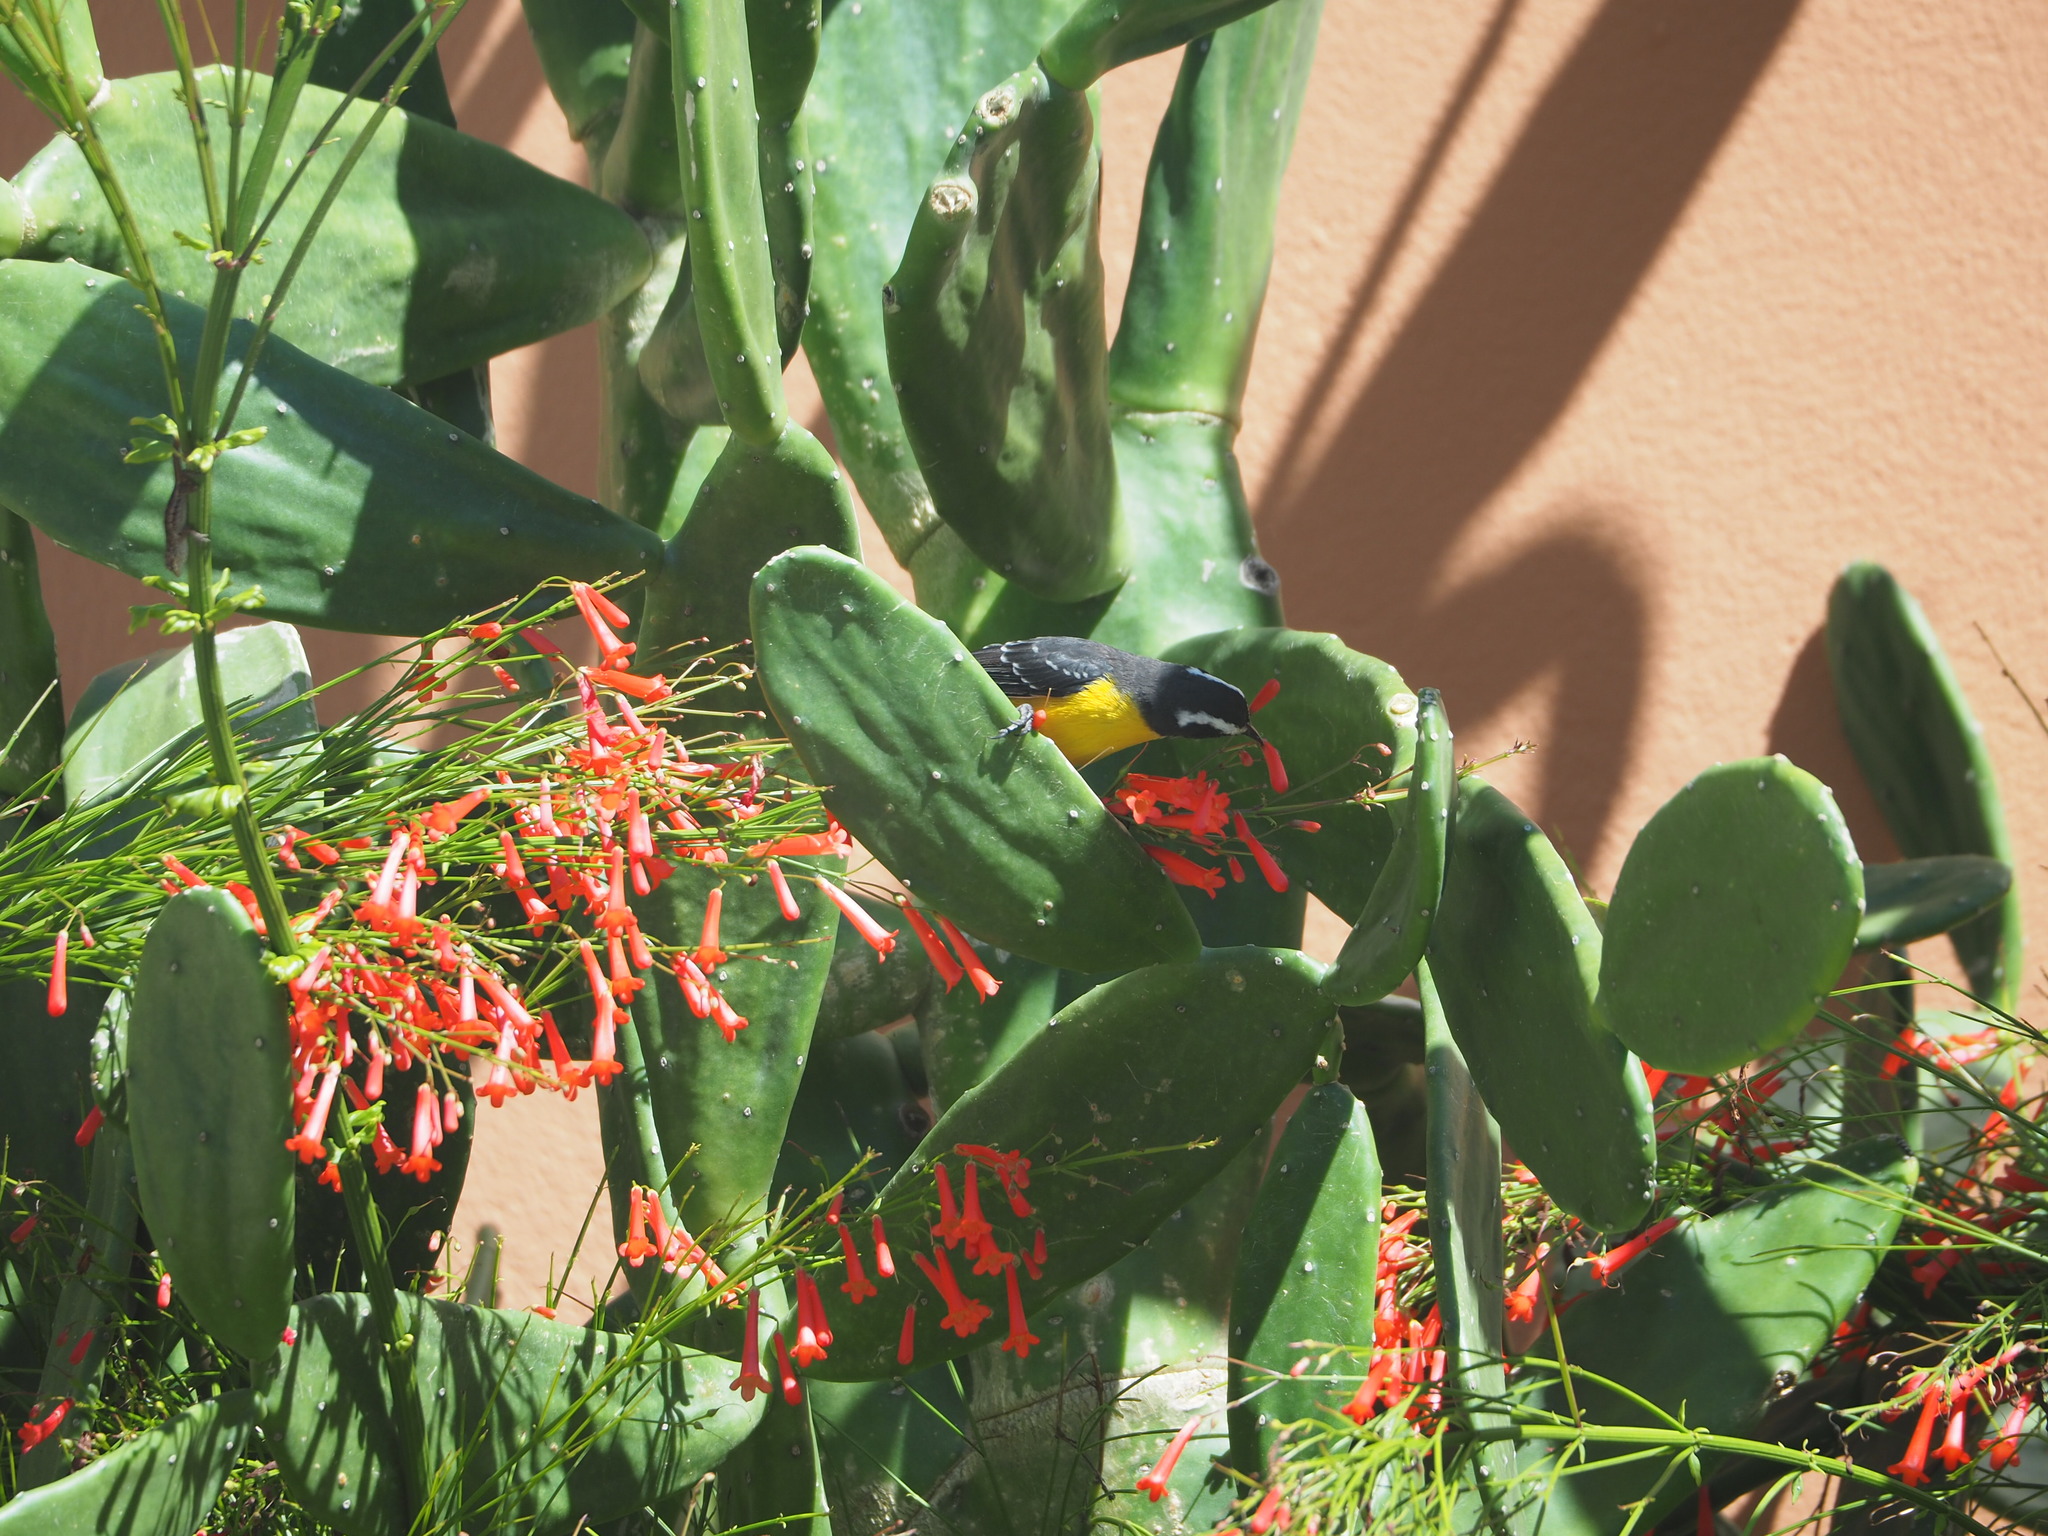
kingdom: Animalia
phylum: Chordata
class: Aves
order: Passeriformes
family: Thraupidae
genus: Coereba
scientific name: Coereba flaveola
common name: Bananaquit
